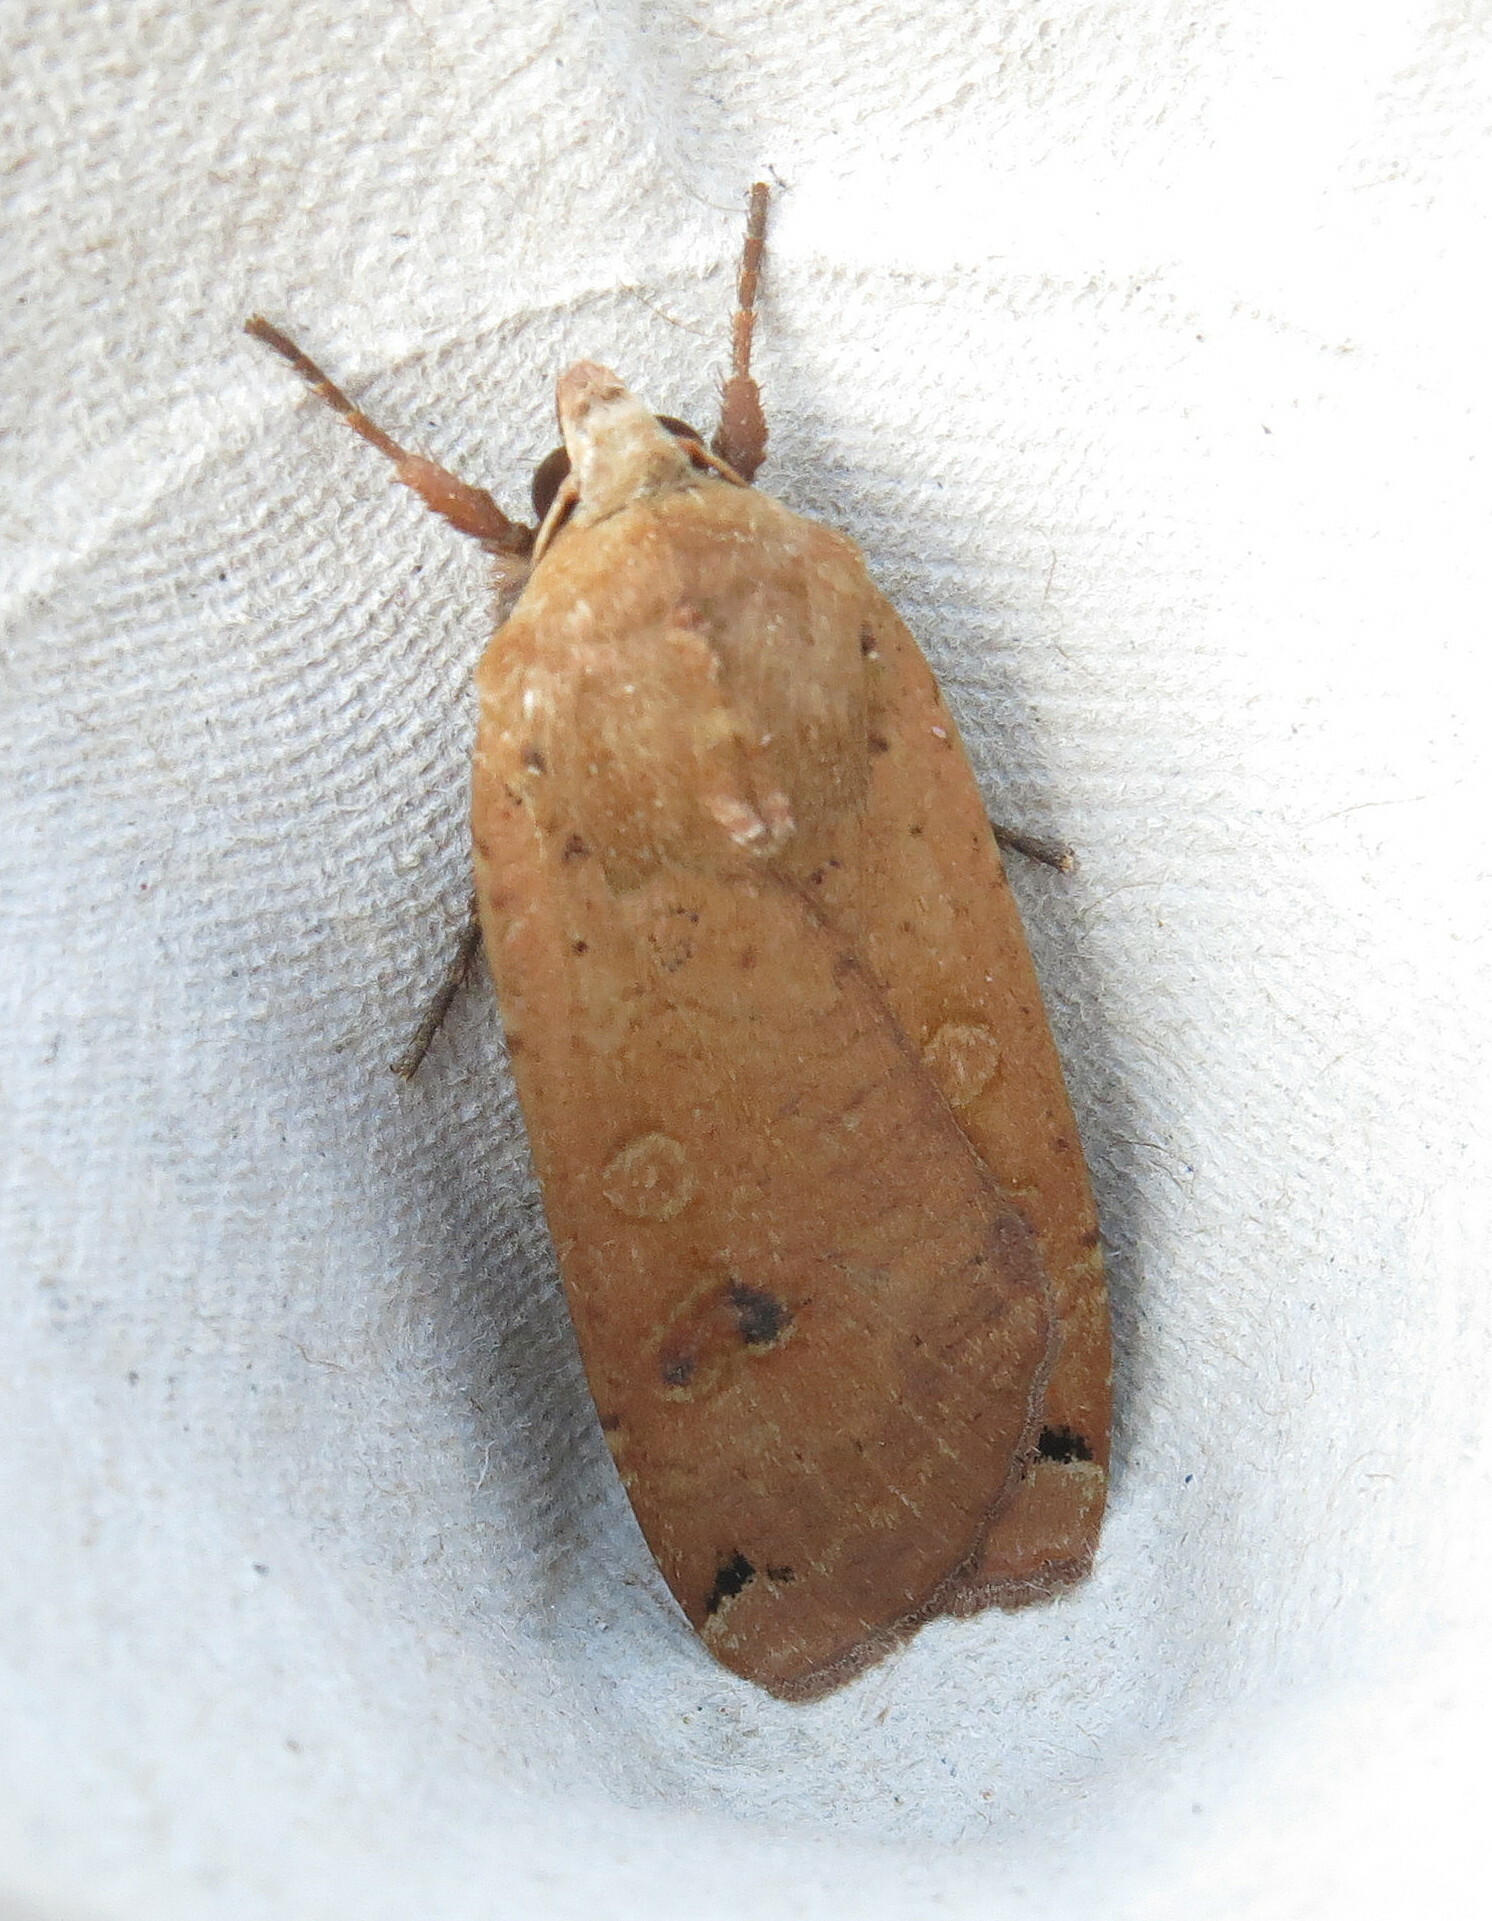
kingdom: Animalia
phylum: Arthropoda
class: Insecta
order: Lepidoptera
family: Noctuidae
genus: Noctua
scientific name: Noctua pronuba
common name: Large yellow underwing
